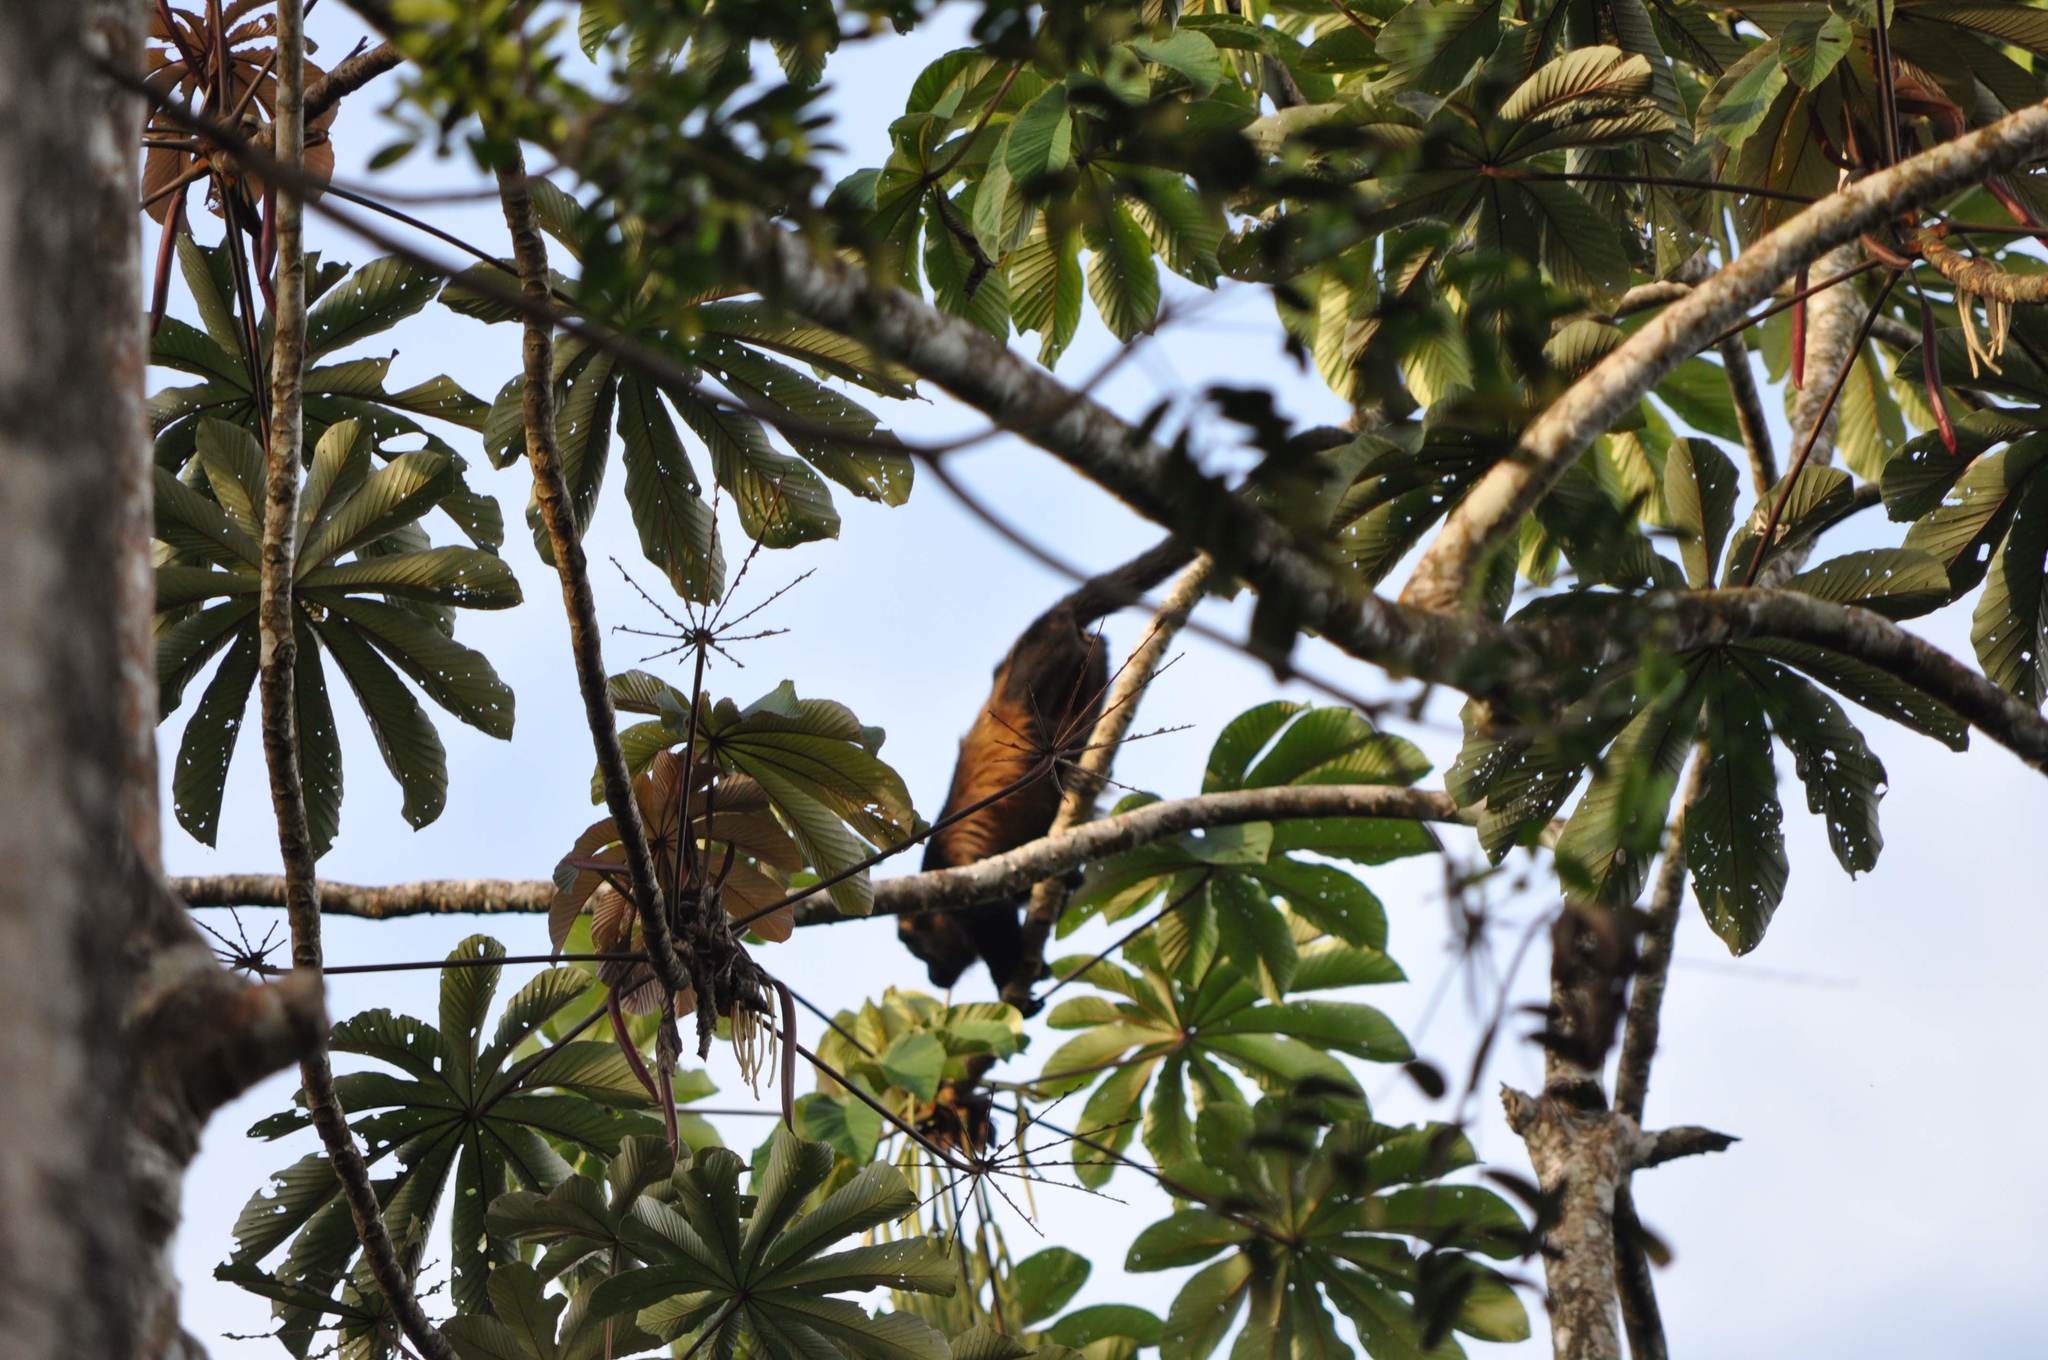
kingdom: Animalia
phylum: Chordata
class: Mammalia
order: Primates
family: Atelidae
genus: Alouatta
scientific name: Alouatta palliata
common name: Mantled howler
